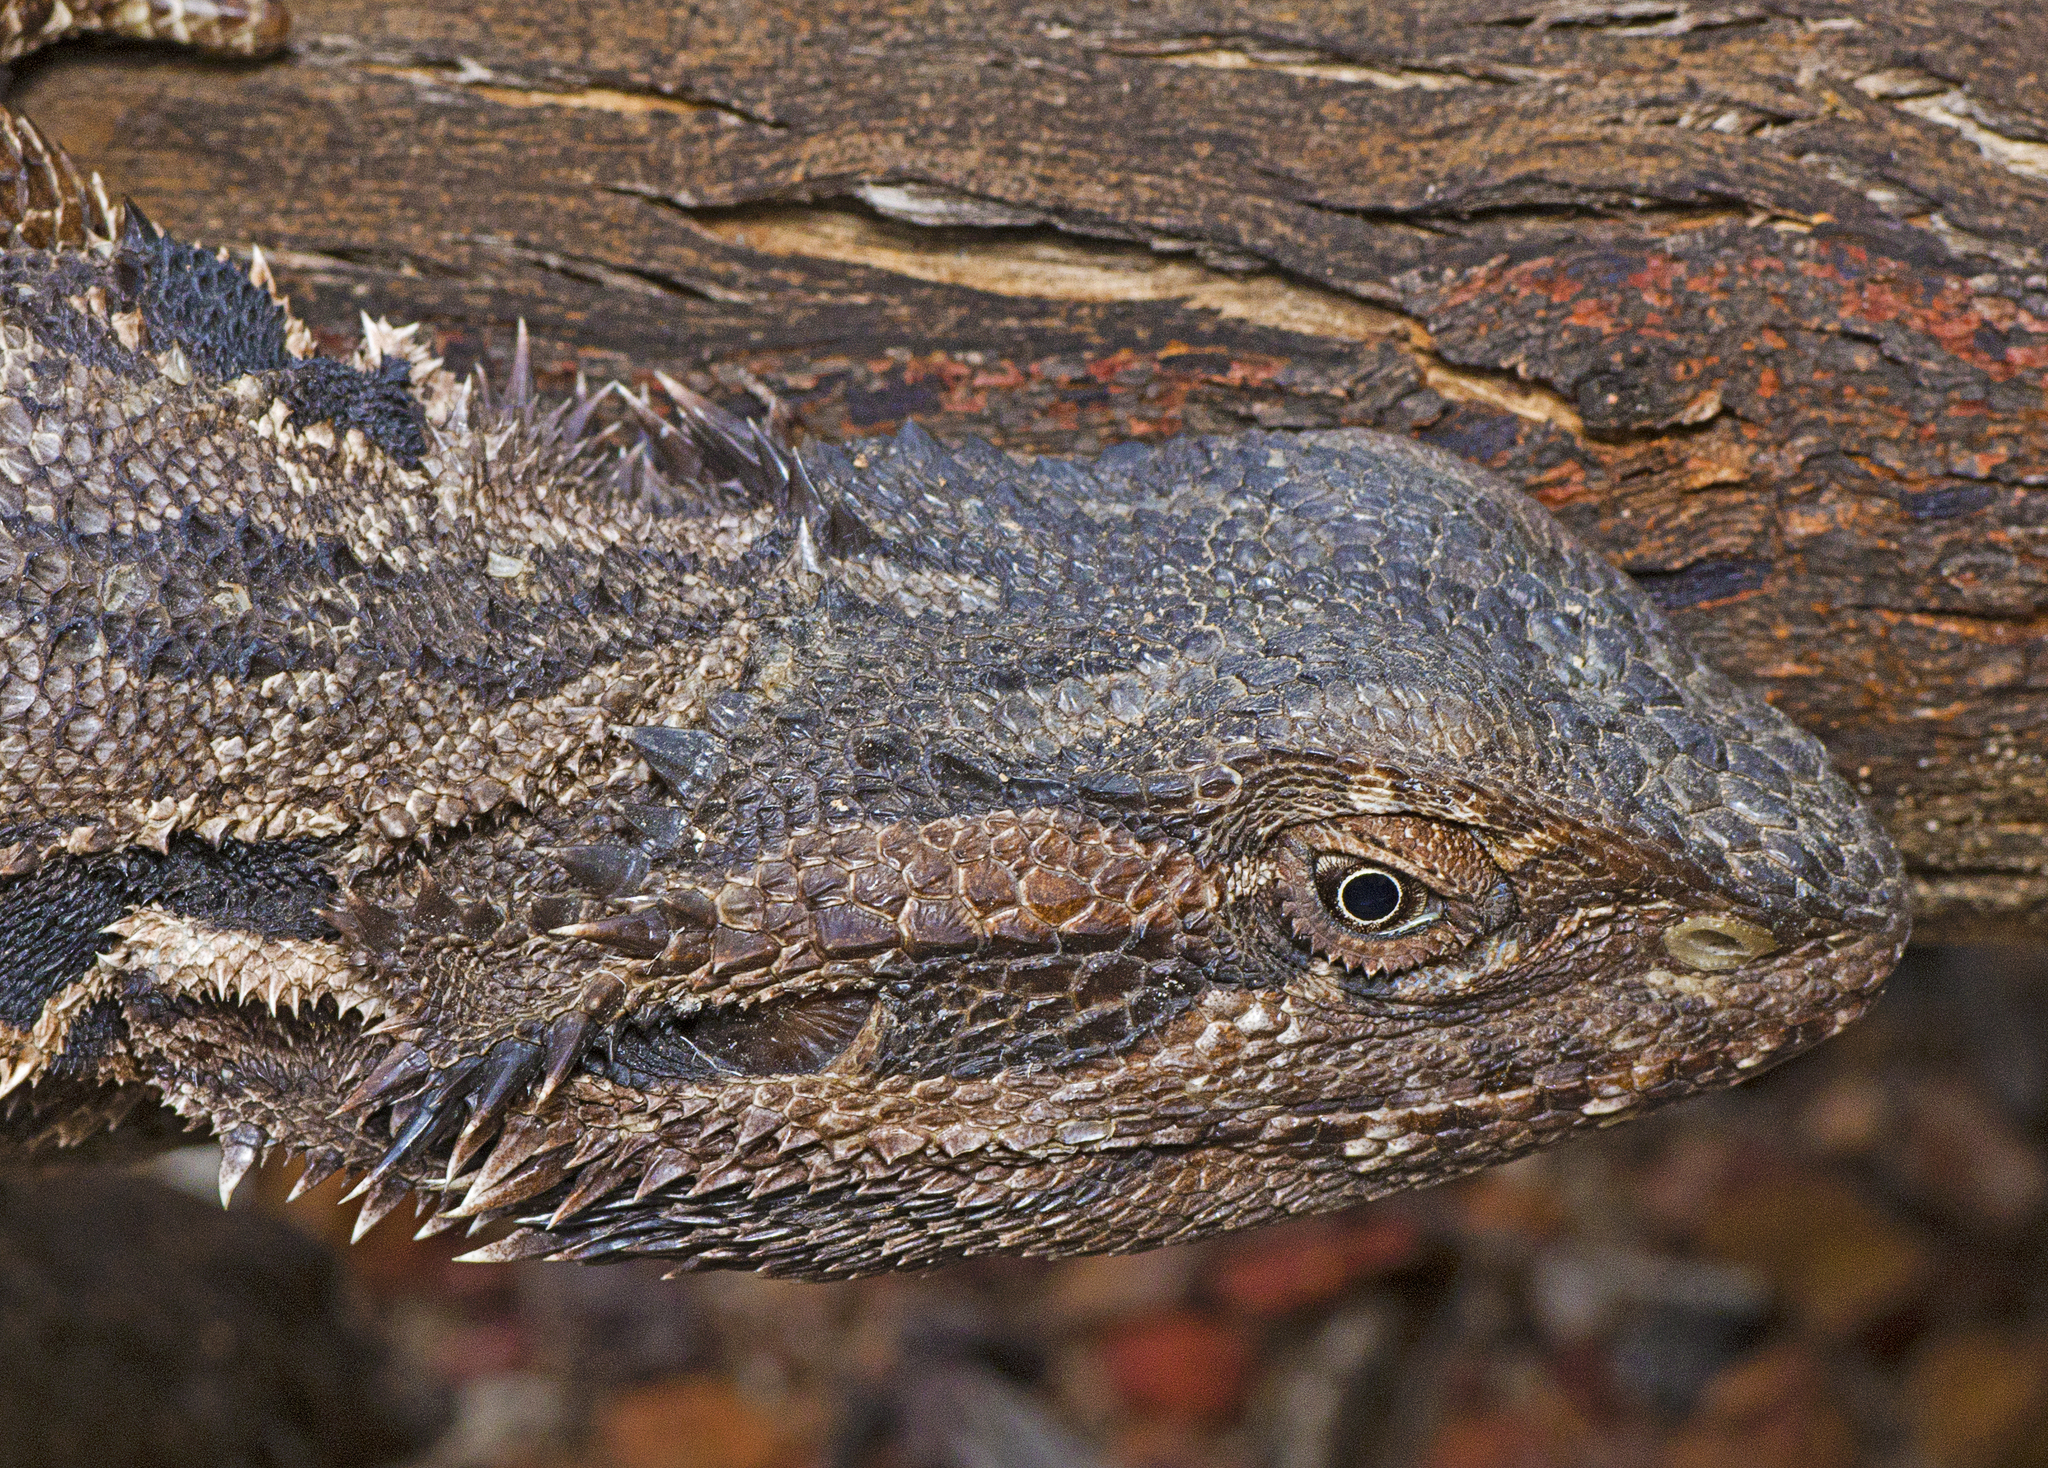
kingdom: Animalia
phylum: Chordata
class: Squamata
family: Agamidae
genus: Pogona
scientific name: Pogona barbata
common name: Bearded dragon
